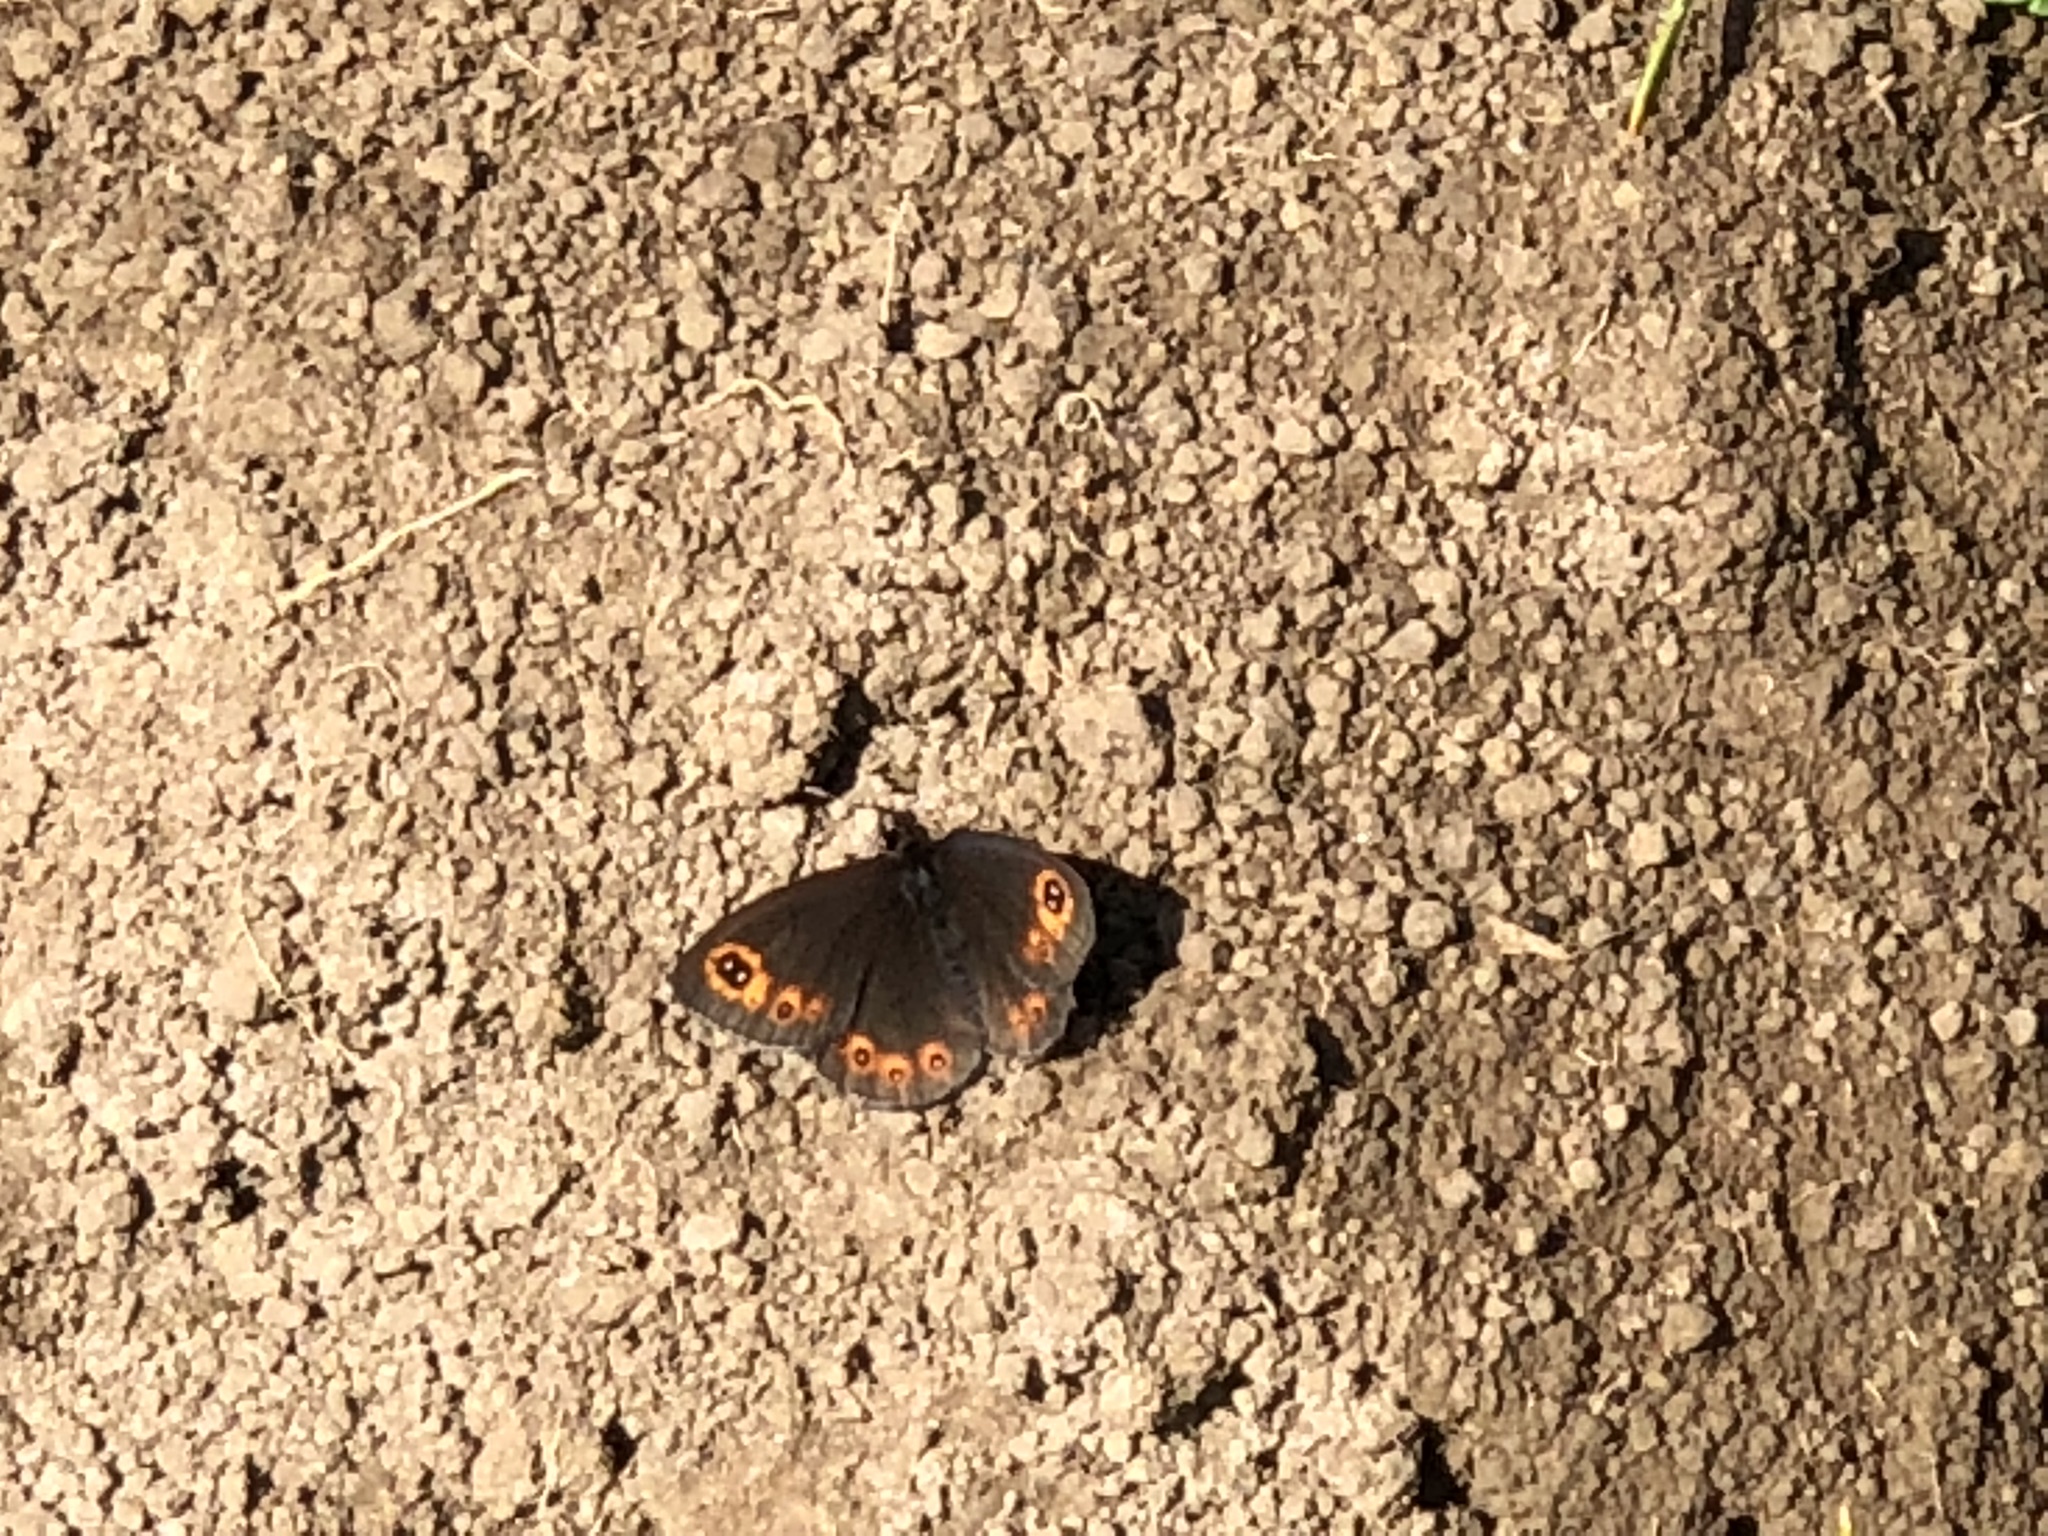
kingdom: Animalia
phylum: Arthropoda
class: Insecta
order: Lepidoptera
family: Nymphalidae
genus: Erebia
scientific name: Erebia medusa
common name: Woodland ringlet
